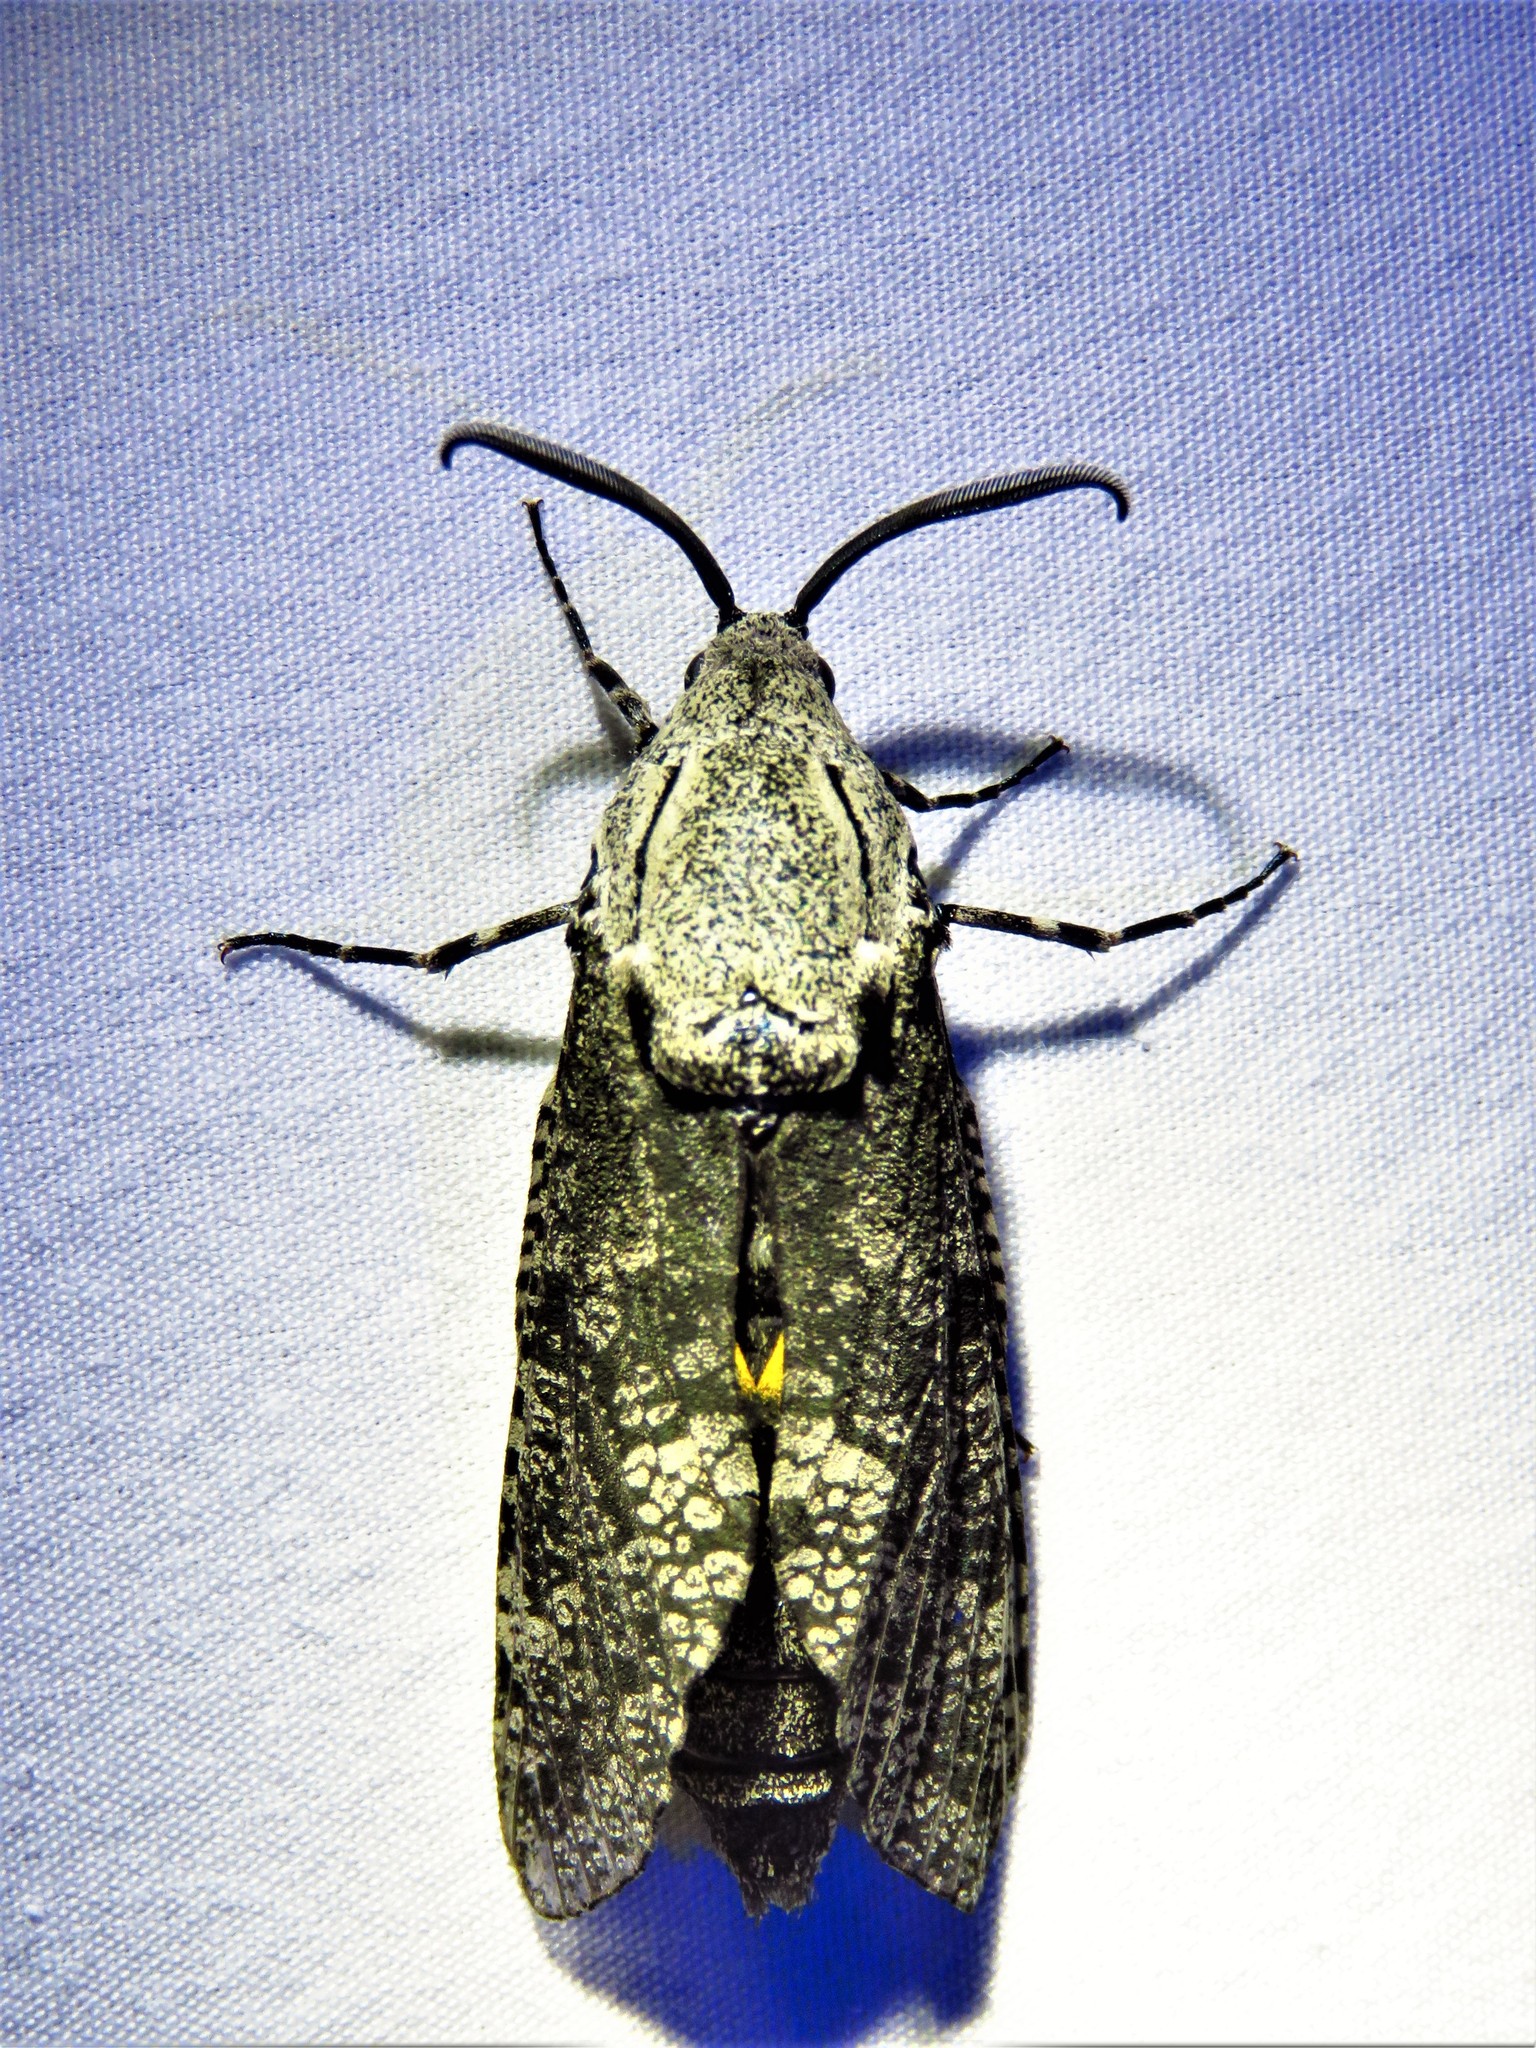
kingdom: Animalia
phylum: Arthropoda
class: Insecta
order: Lepidoptera
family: Cossidae
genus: Prionoxystus
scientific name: Prionoxystus robiniae
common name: Carpenterworm
